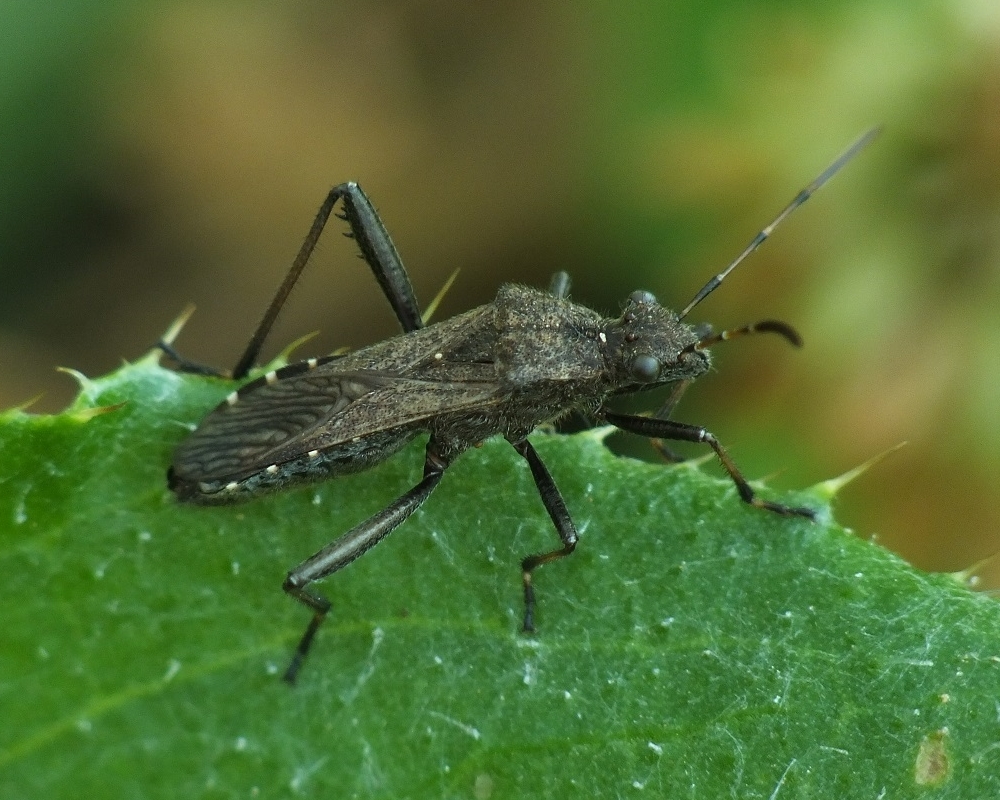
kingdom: Animalia
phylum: Arthropoda
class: Insecta
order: Hemiptera
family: Alydidae
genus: Alydus
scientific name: Alydus calcaratus
